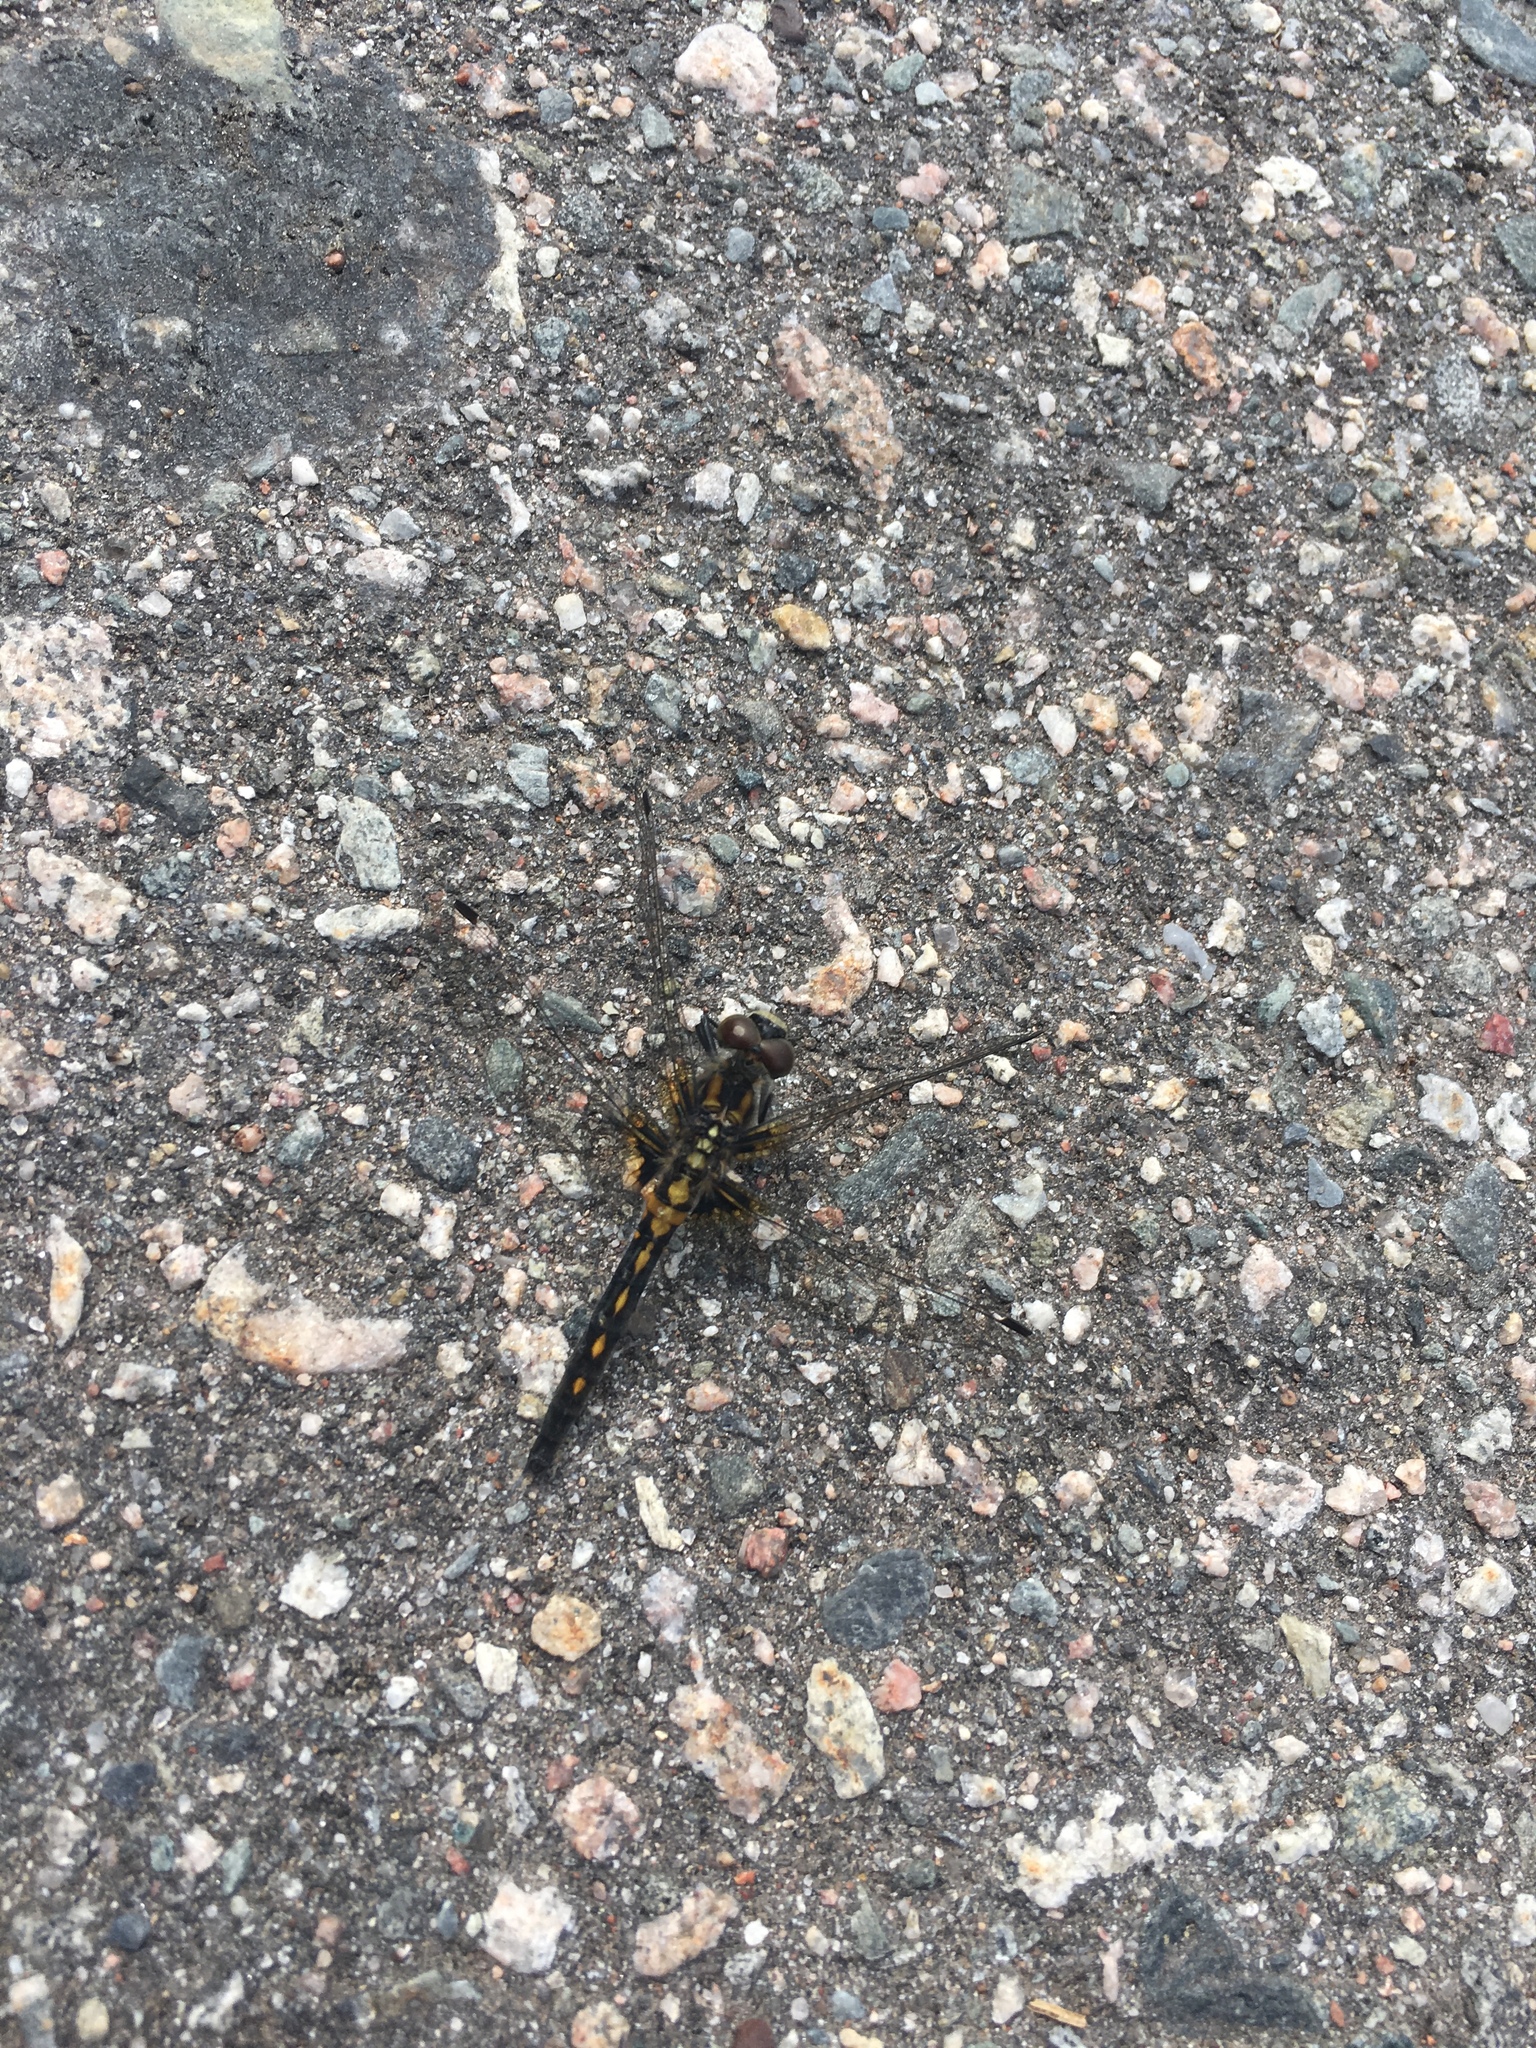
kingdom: Animalia
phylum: Arthropoda
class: Insecta
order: Odonata
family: Libellulidae
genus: Leucorrhinia
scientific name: Leucorrhinia intacta
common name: Dot-tailed whiteface
